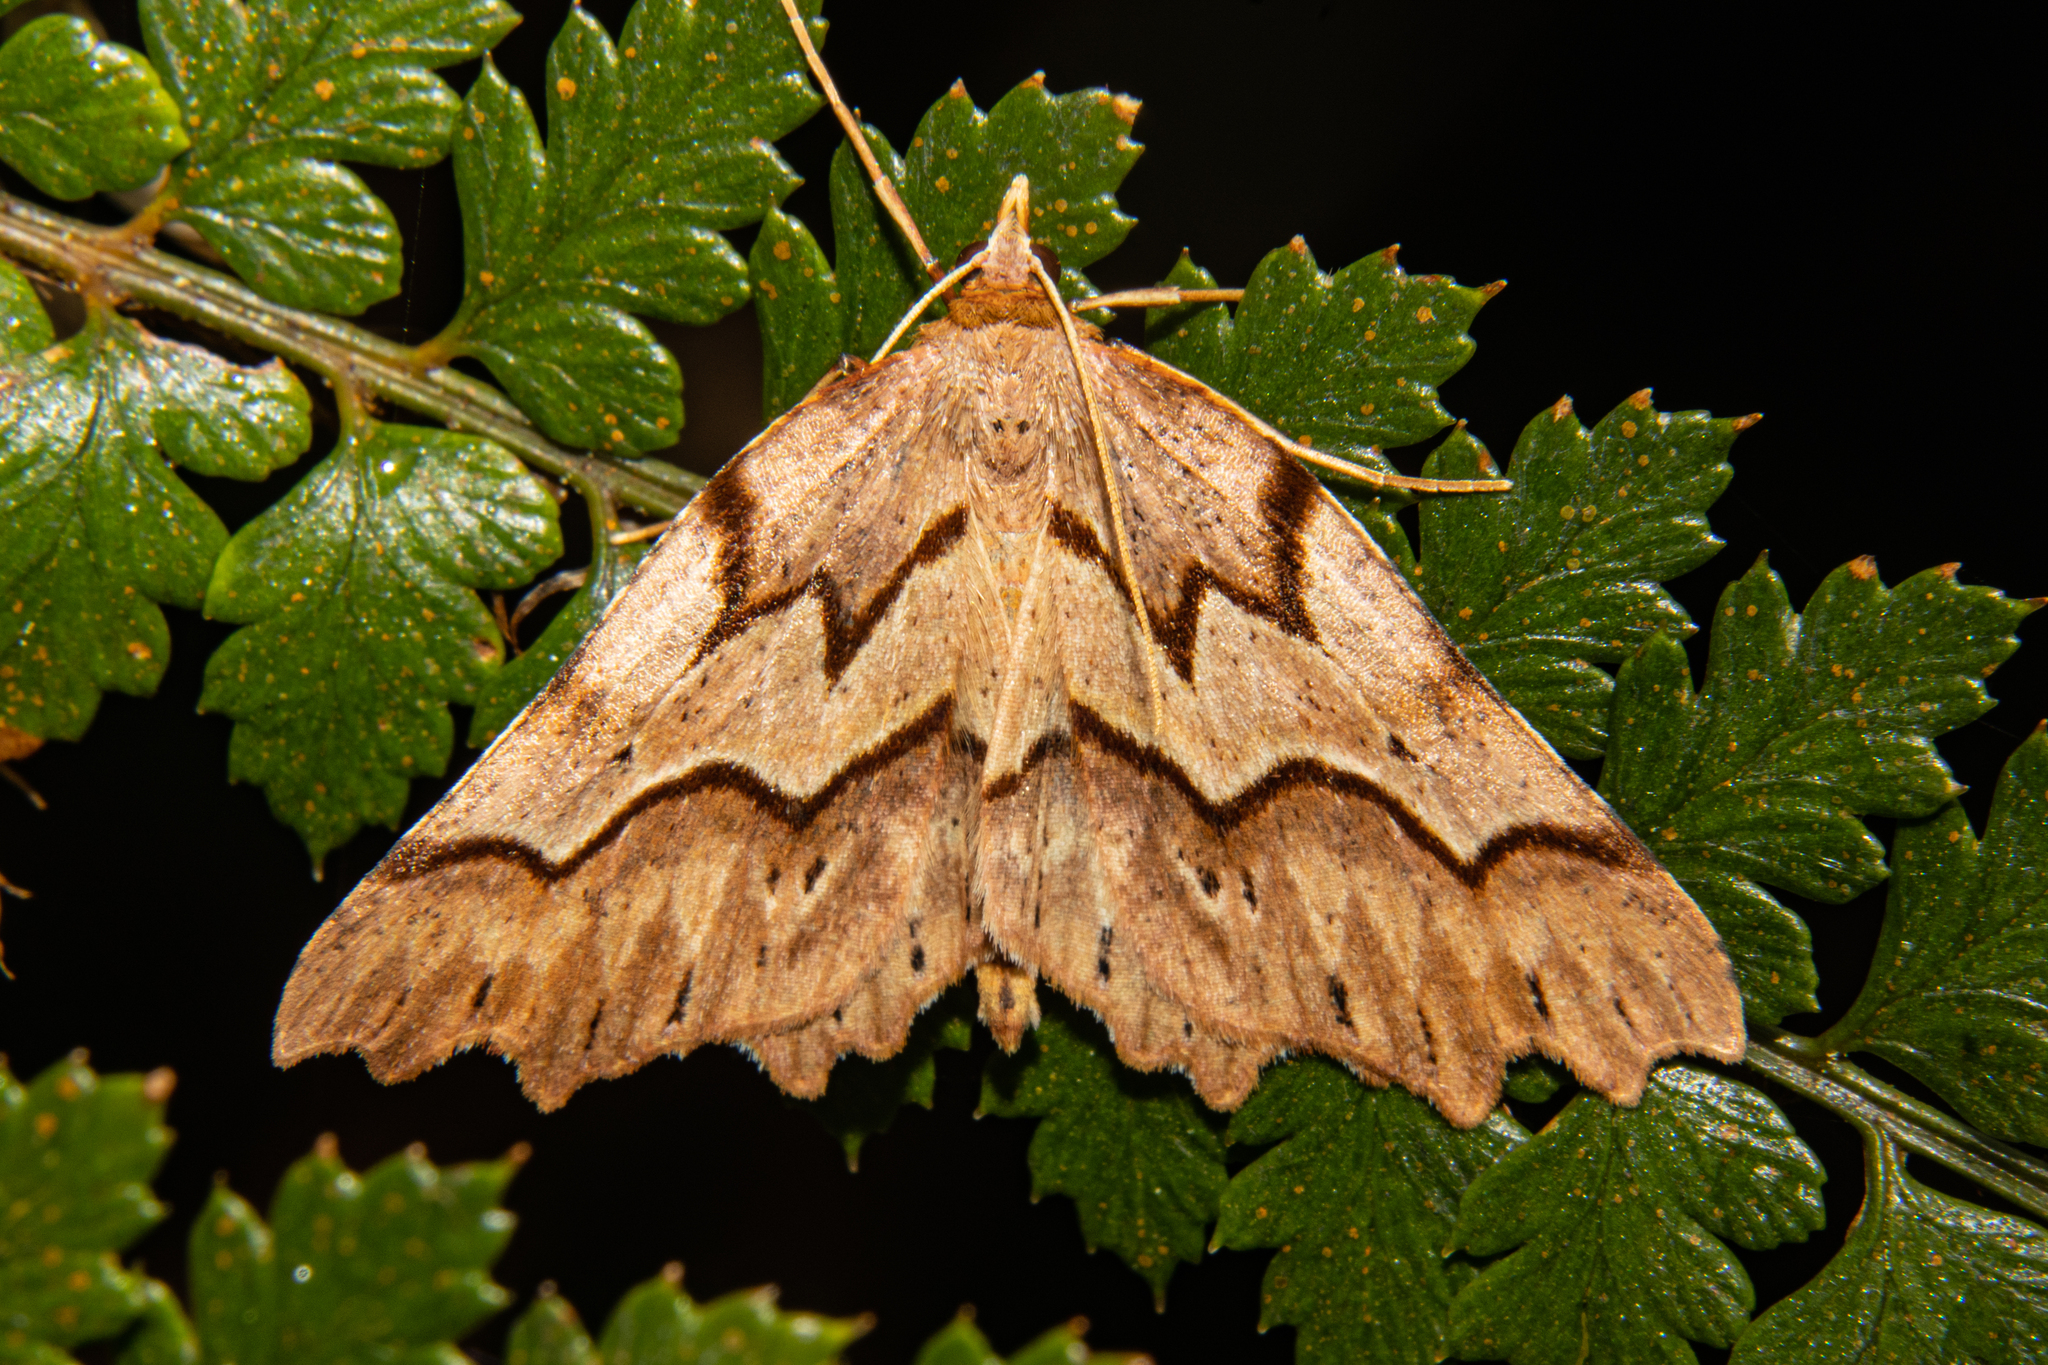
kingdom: Animalia
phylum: Arthropoda
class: Insecta
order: Lepidoptera
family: Geometridae
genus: Ischalis
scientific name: Ischalis fortinata
